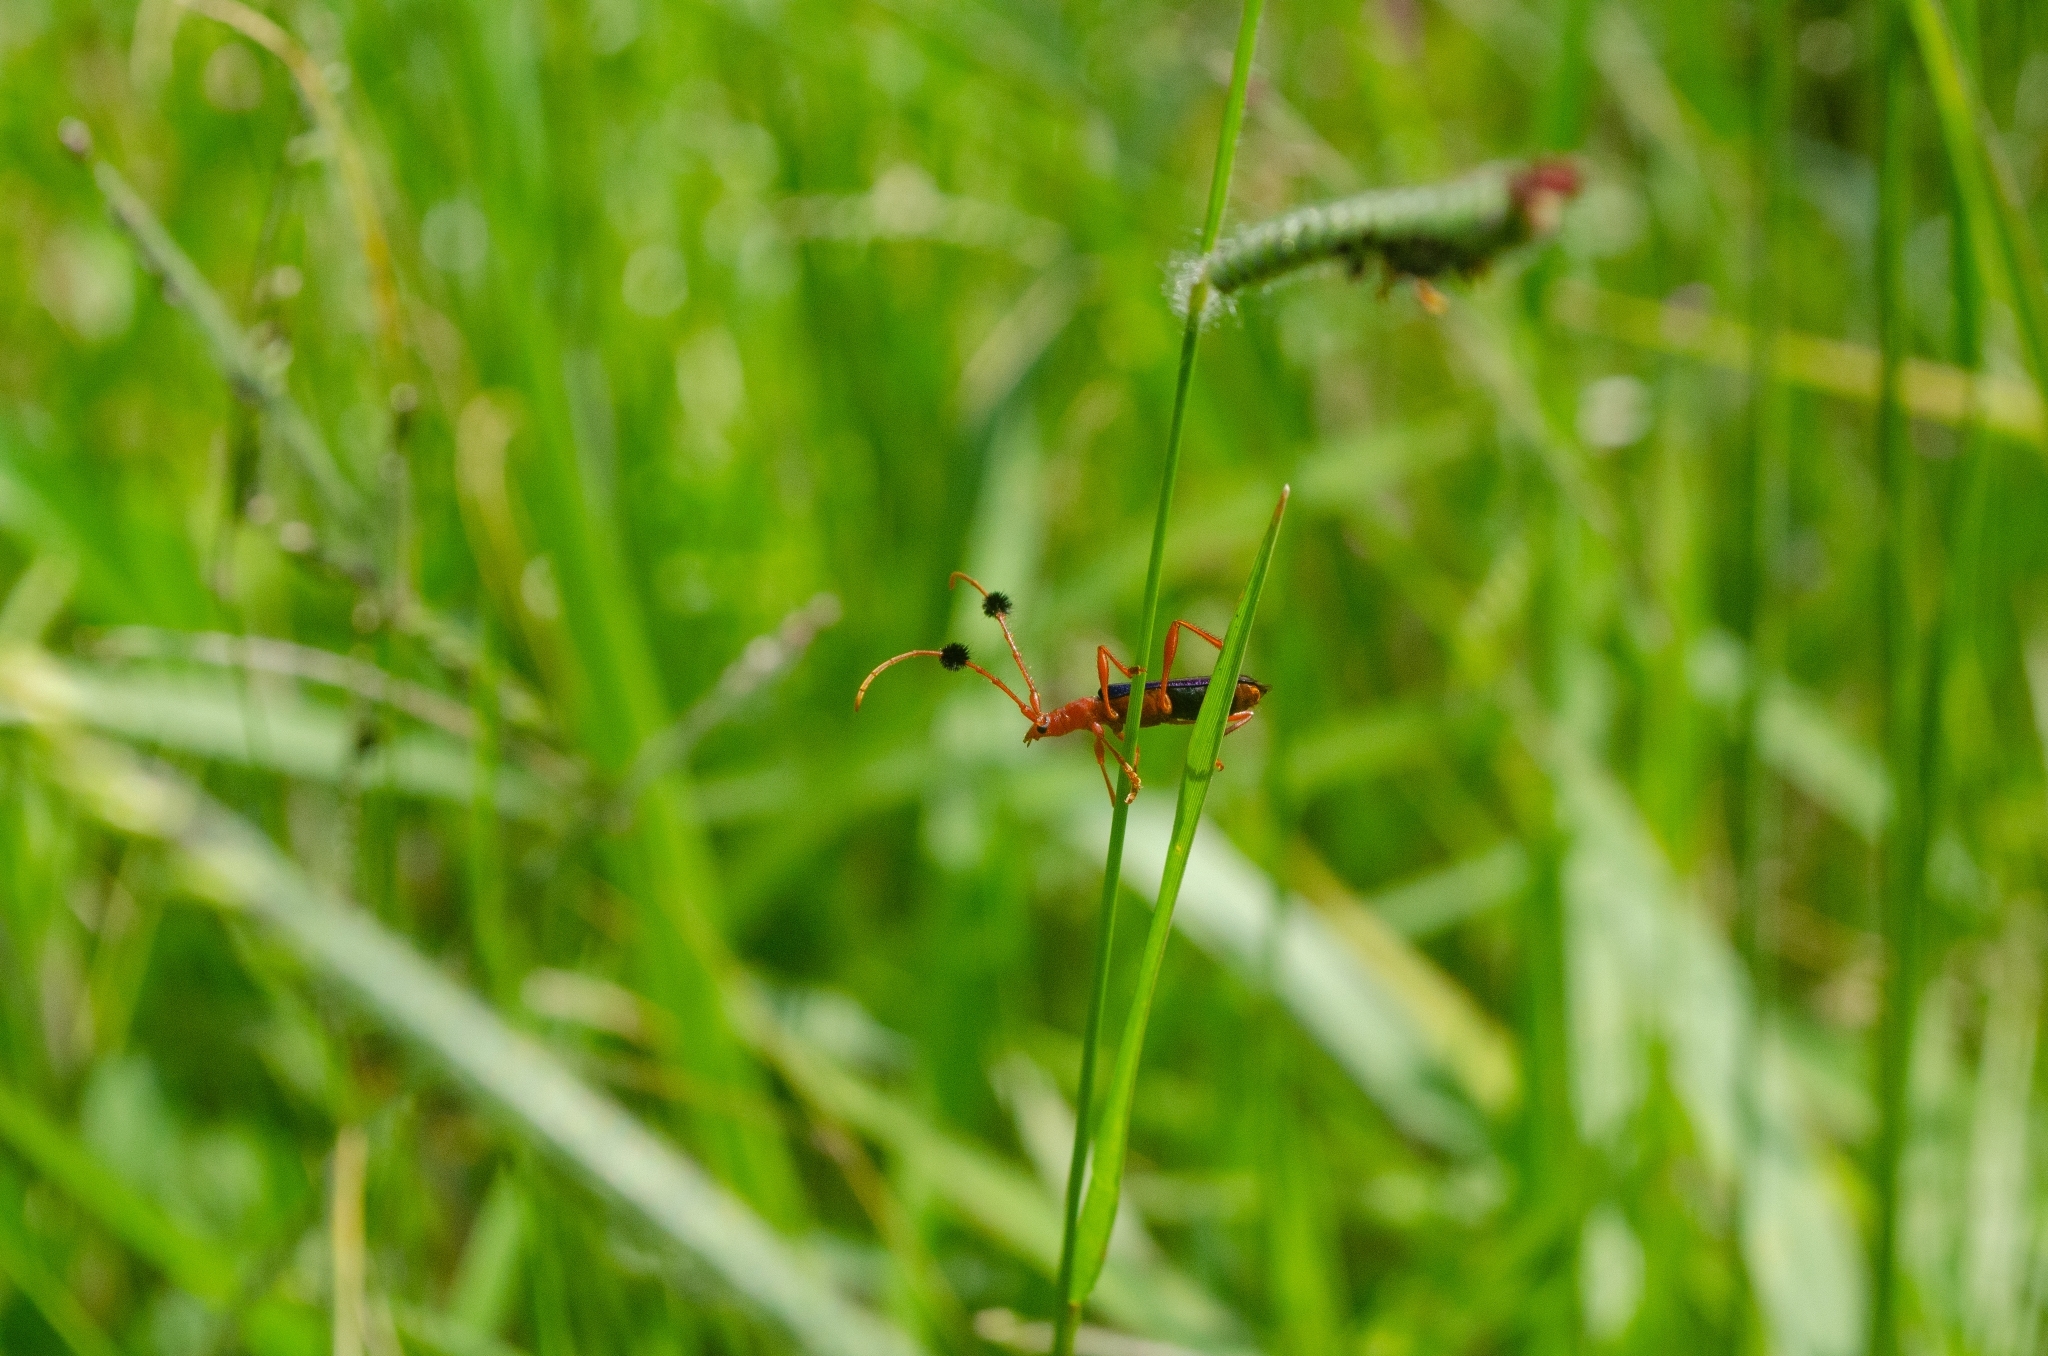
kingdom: Animalia
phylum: Arthropoda
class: Insecta
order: Coleoptera
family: Cerambycidae
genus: Paromoeocerus
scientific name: Paromoeocerus barbicornis
